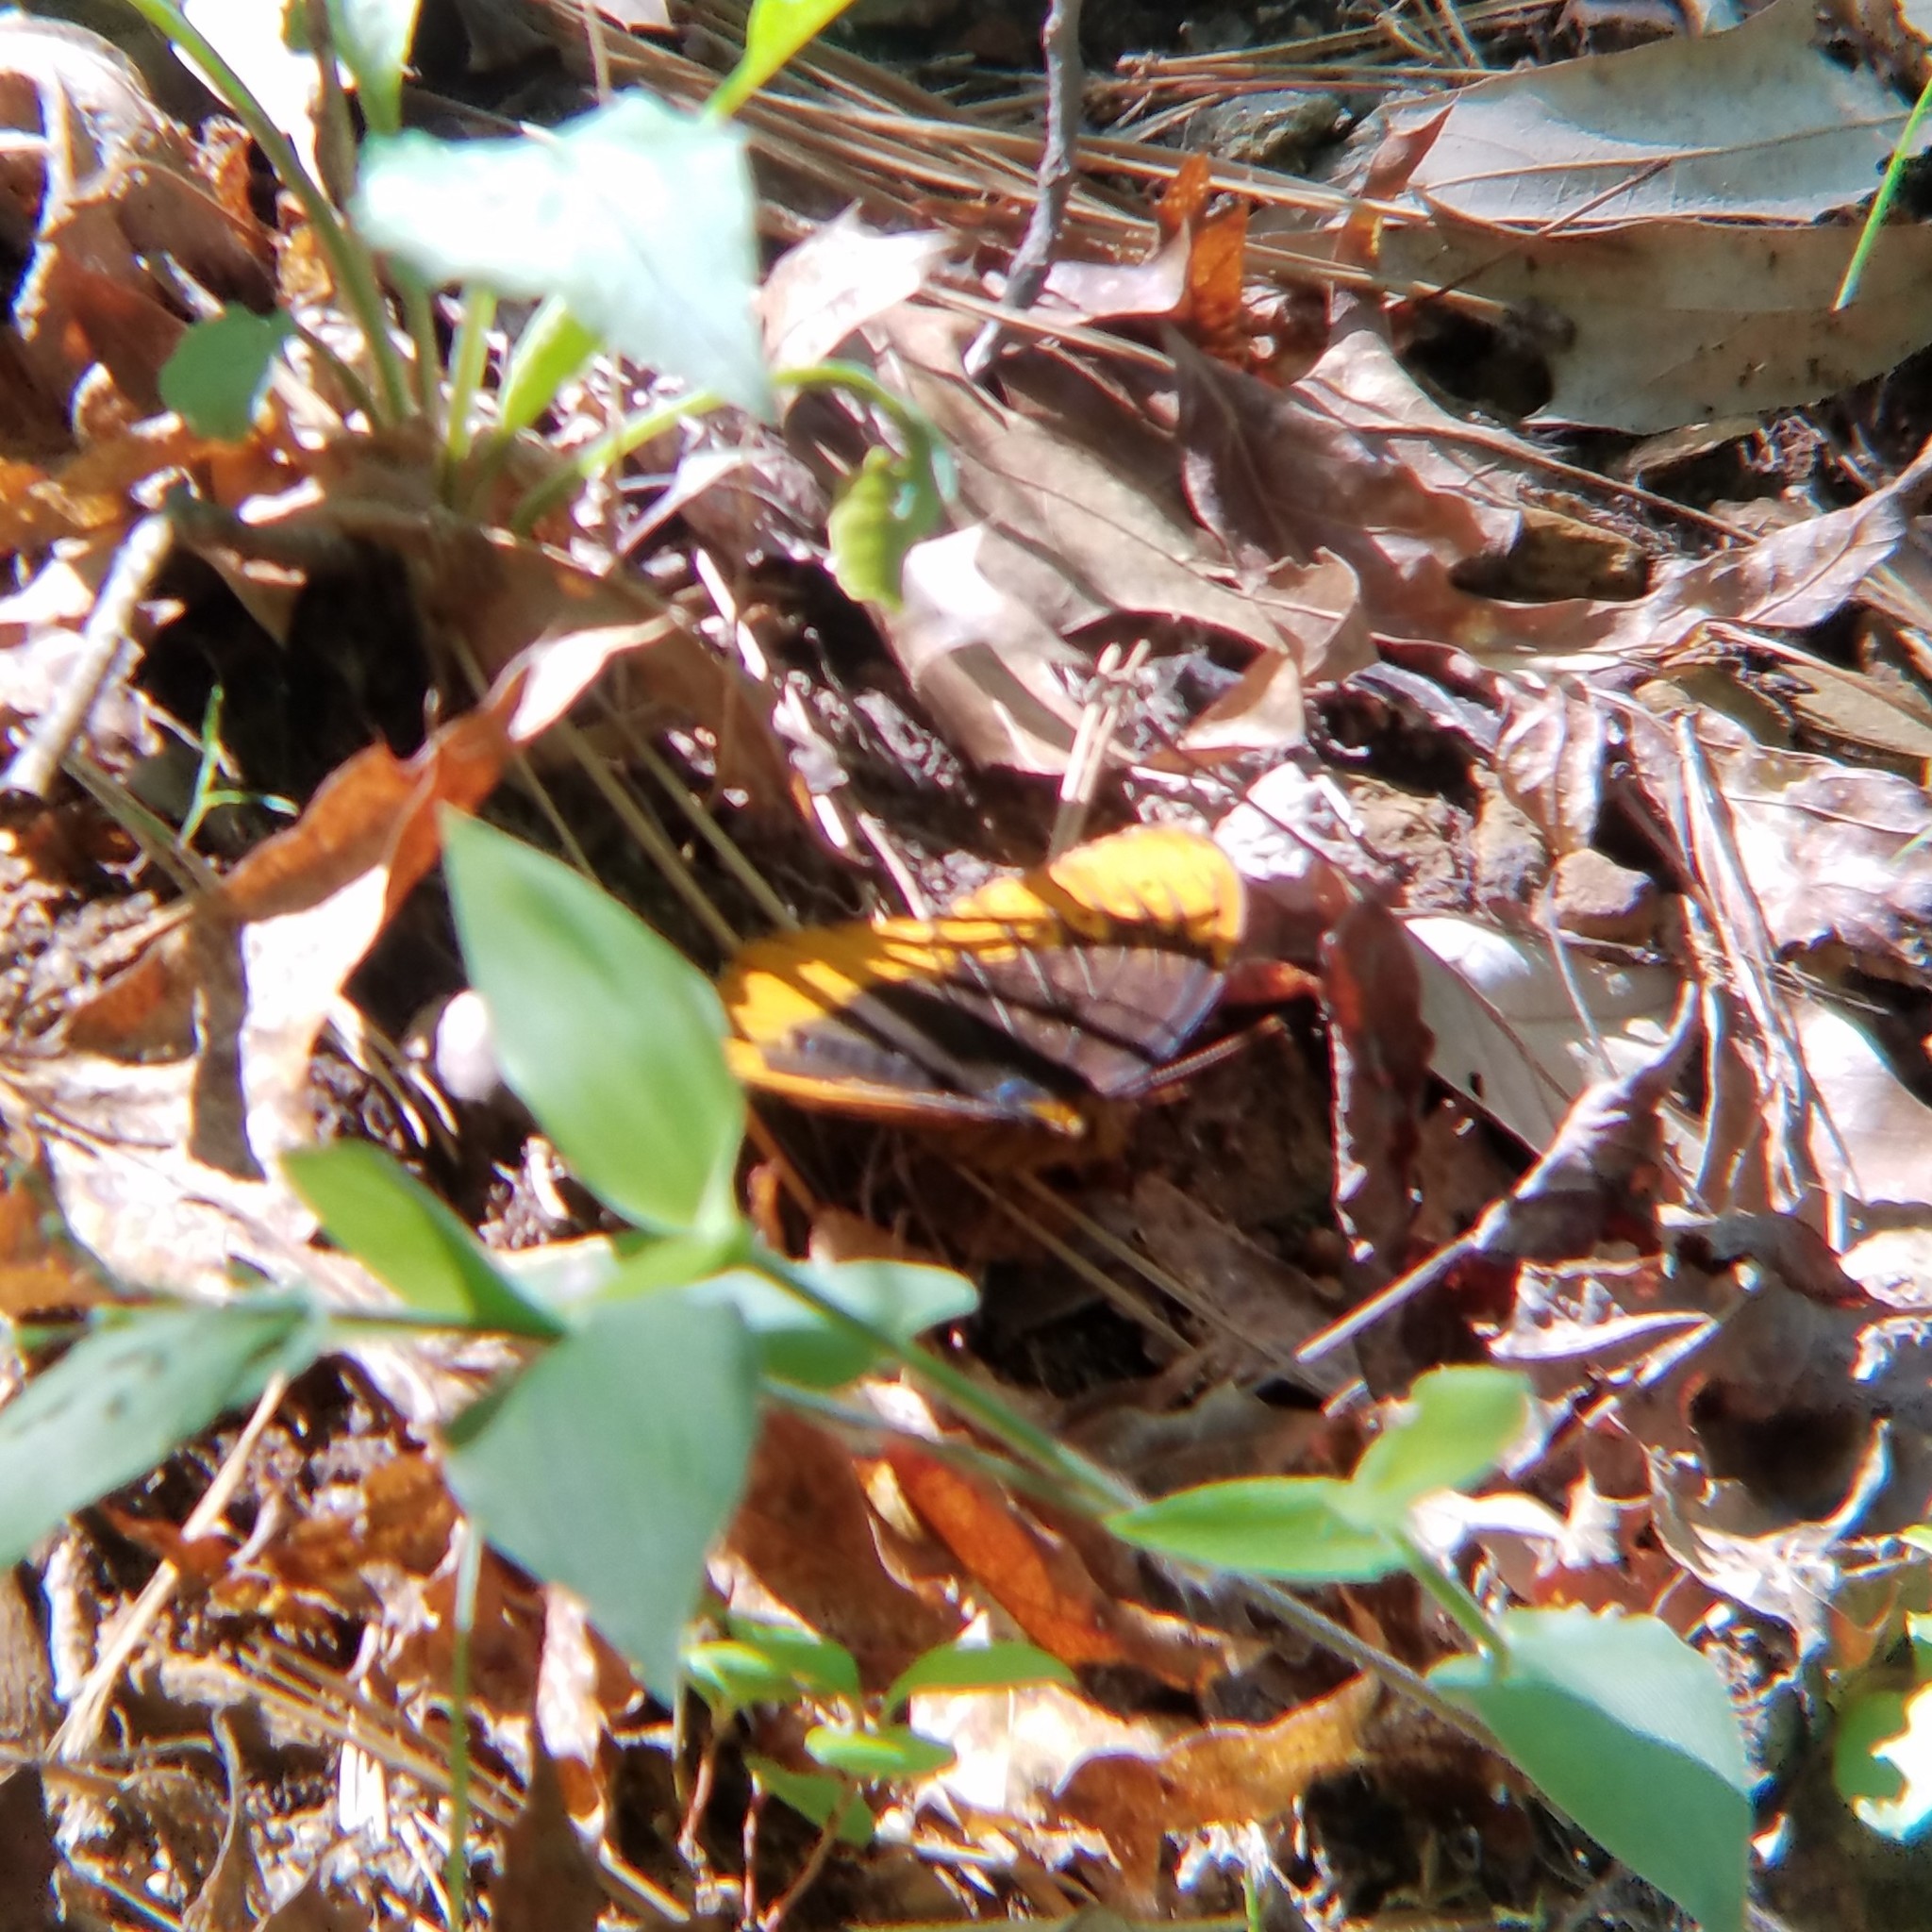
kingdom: Animalia
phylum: Arthropoda
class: Insecta
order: Lepidoptera
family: Nymphalidae
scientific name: Nymphalidae
